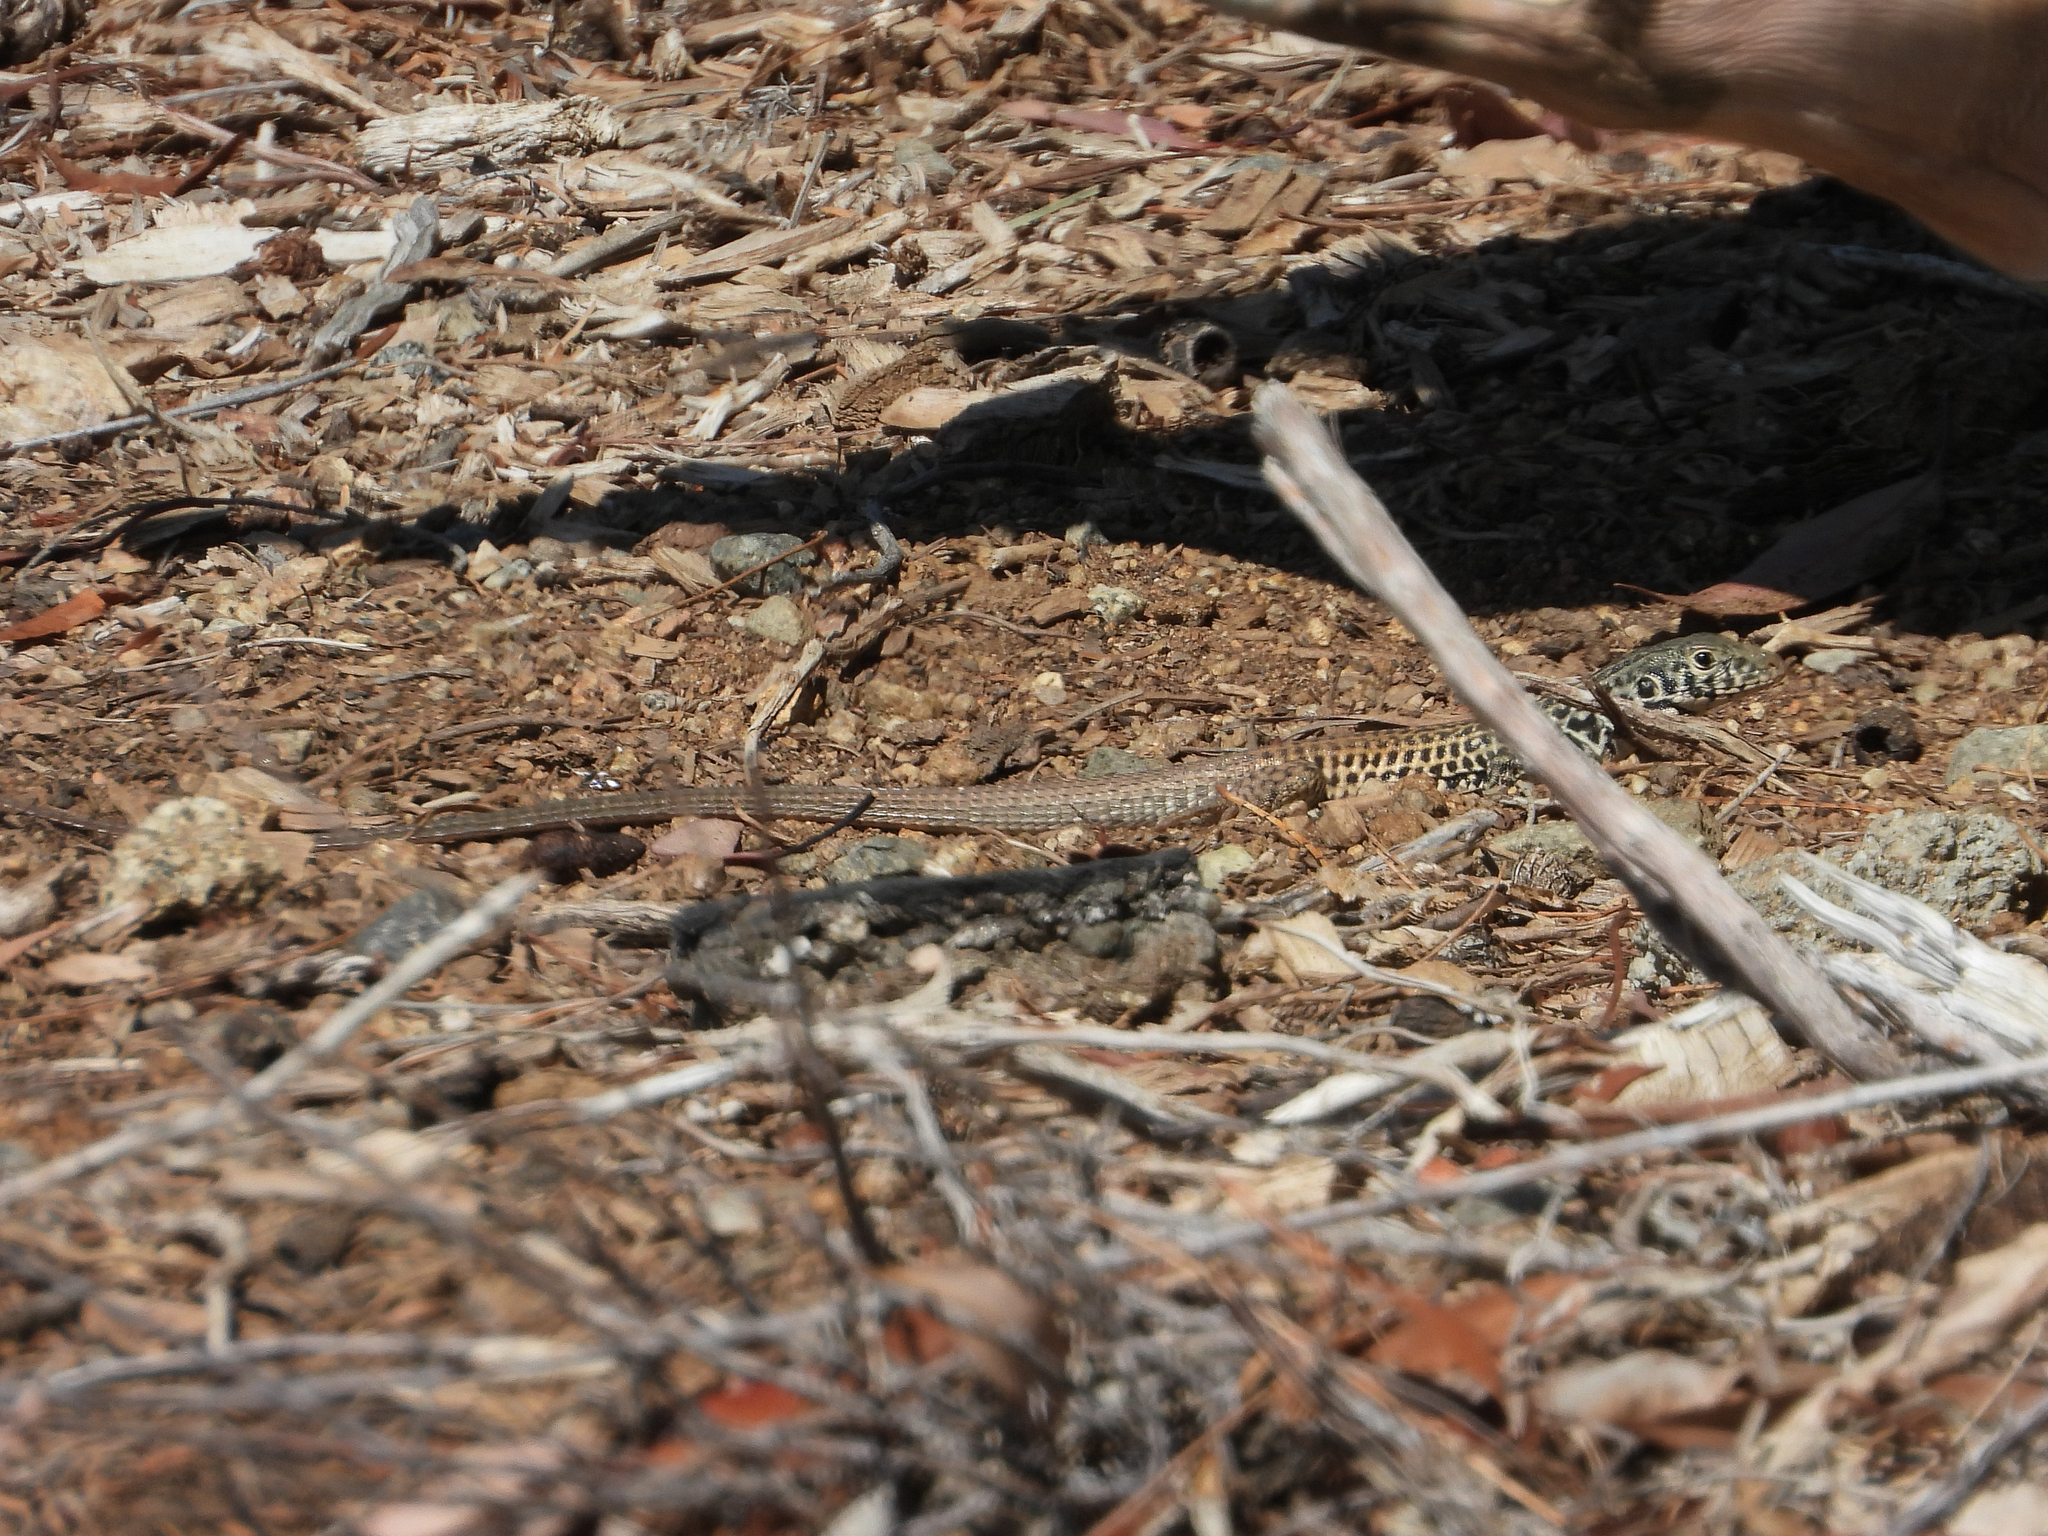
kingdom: Animalia
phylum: Chordata
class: Squamata
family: Teiidae
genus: Aspidoscelis
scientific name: Aspidoscelis tigris
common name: Tiger whiptail
